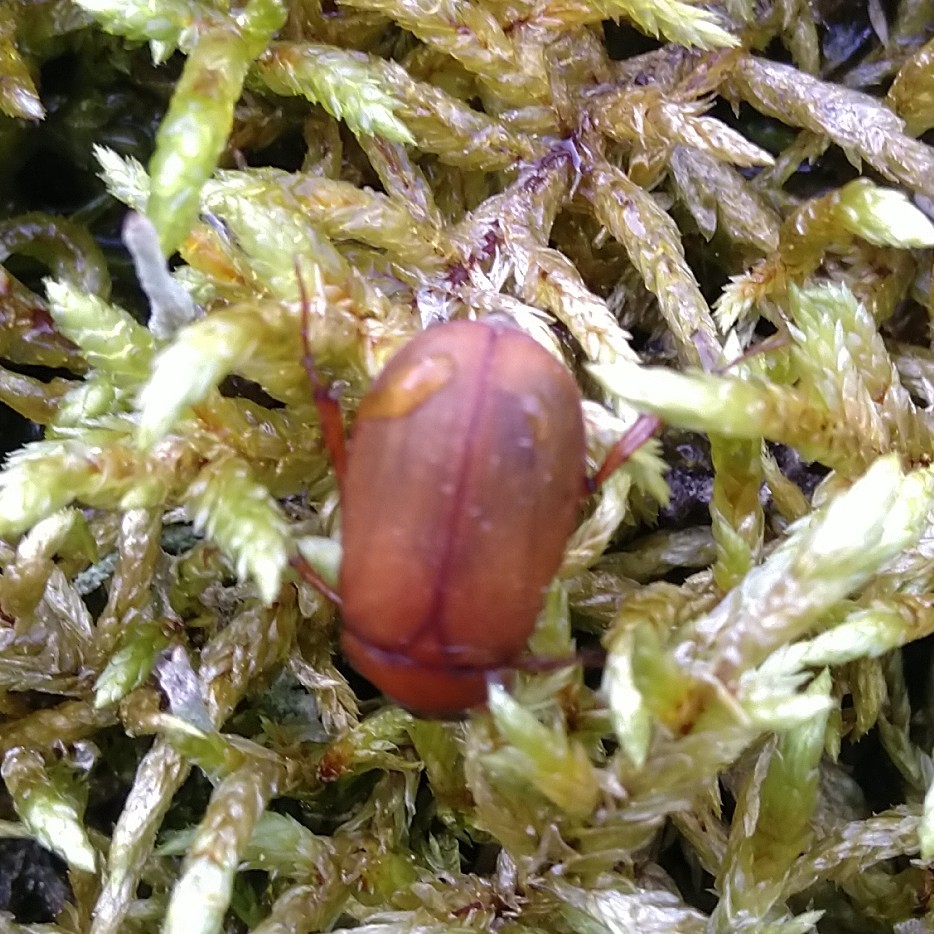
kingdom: Animalia
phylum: Arthropoda
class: Insecta
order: Coleoptera
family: Scarabaeidae
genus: Serica
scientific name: Serica brunnea
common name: Brown chafer
